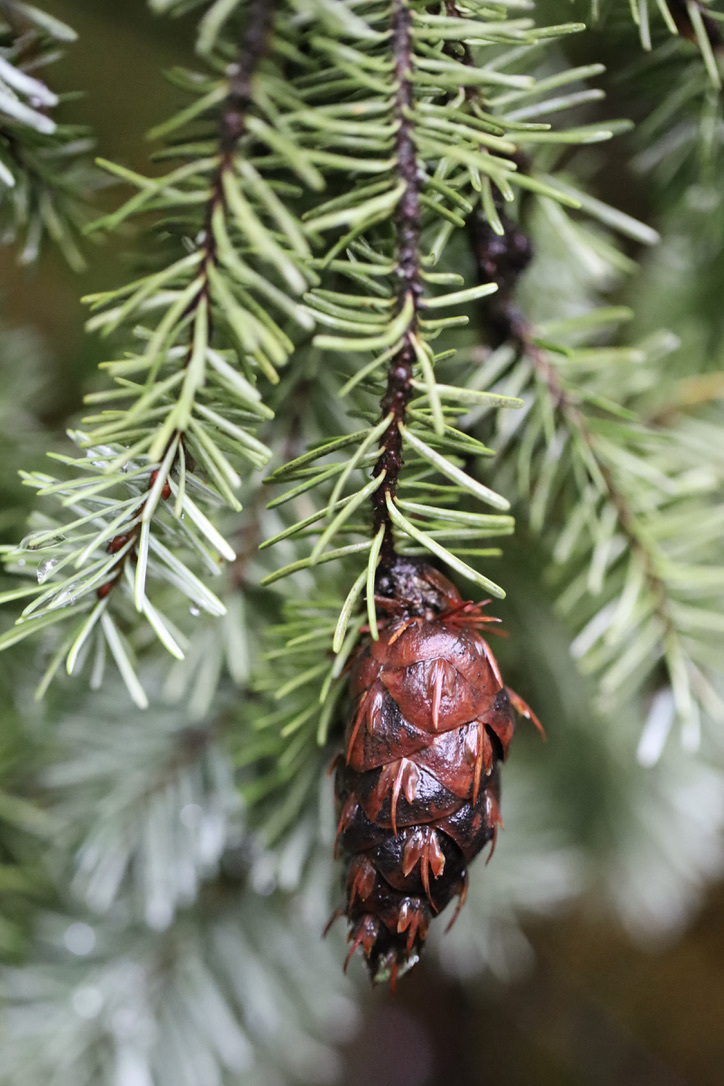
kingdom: Plantae
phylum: Tracheophyta
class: Pinopsida
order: Pinales
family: Pinaceae
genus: Pseudotsuga
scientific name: Pseudotsuga menziesii
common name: Douglas fir
